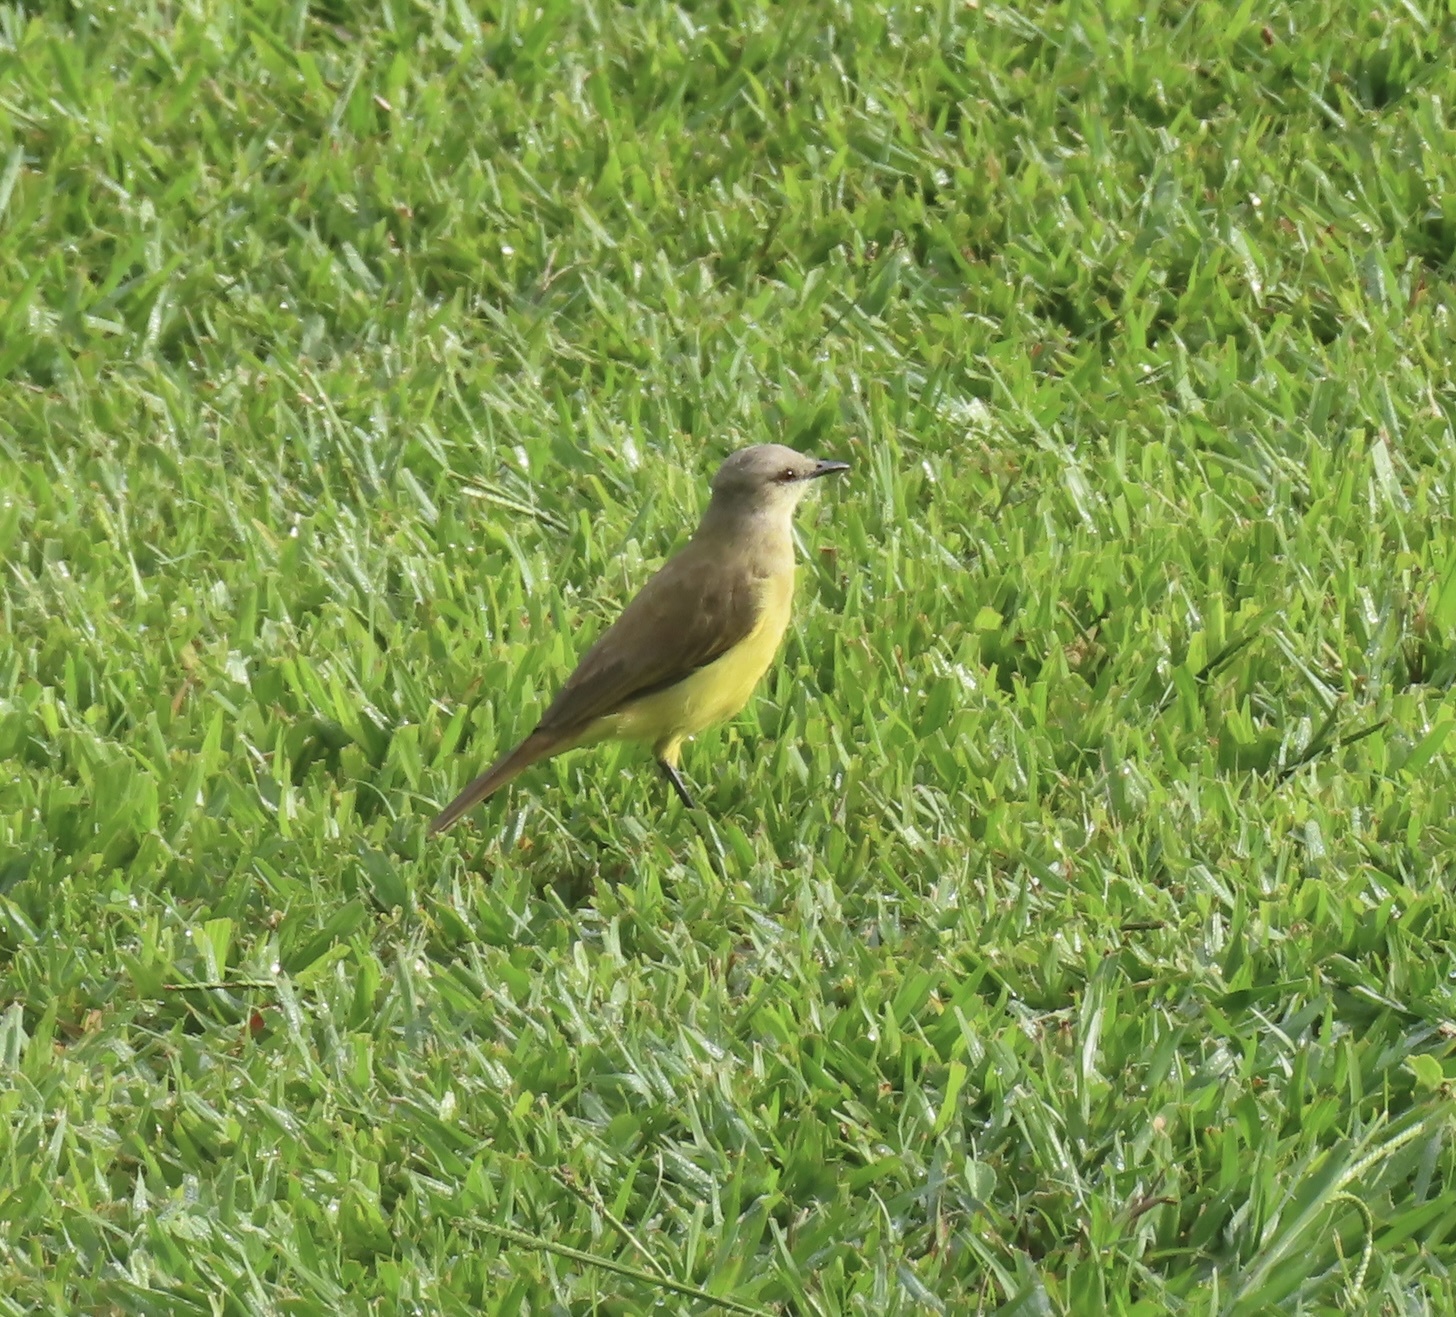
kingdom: Animalia
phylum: Chordata
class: Aves
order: Passeriformes
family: Tyrannidae
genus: Machetornis
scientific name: Machetornis rixosa
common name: Cattle tyrant
